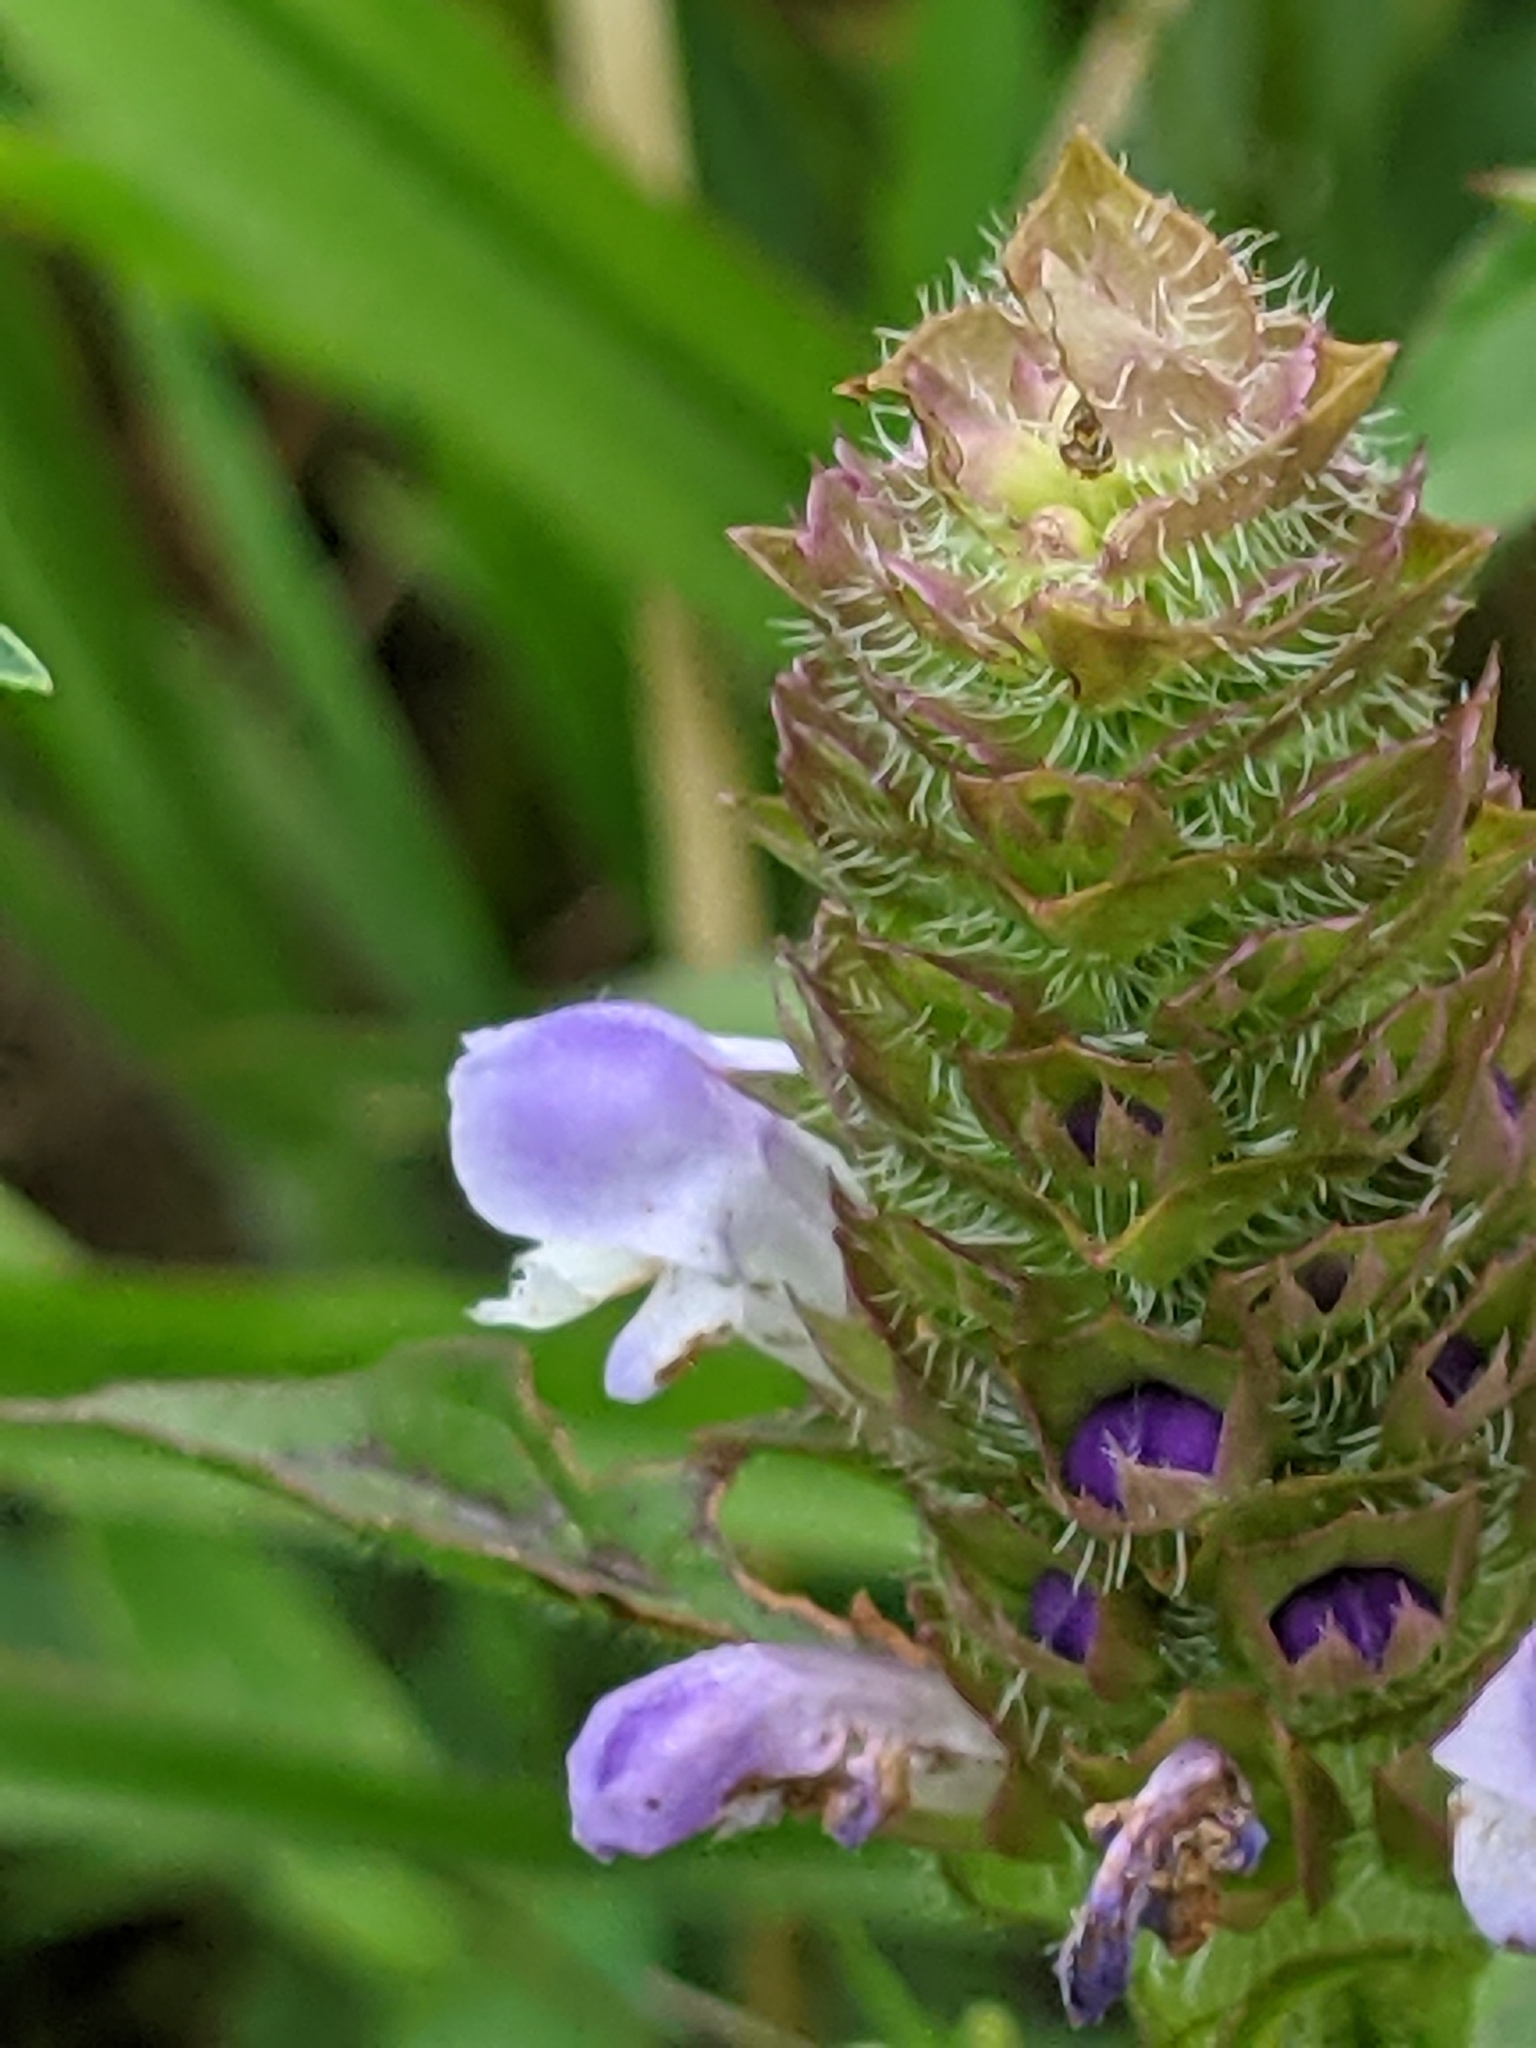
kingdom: Plantae
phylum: Tracheophyta
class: Magnoliopsida
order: Lamiales
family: Lamiaceae
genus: Prunella
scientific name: Prunella vulgaris
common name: Heal-all
